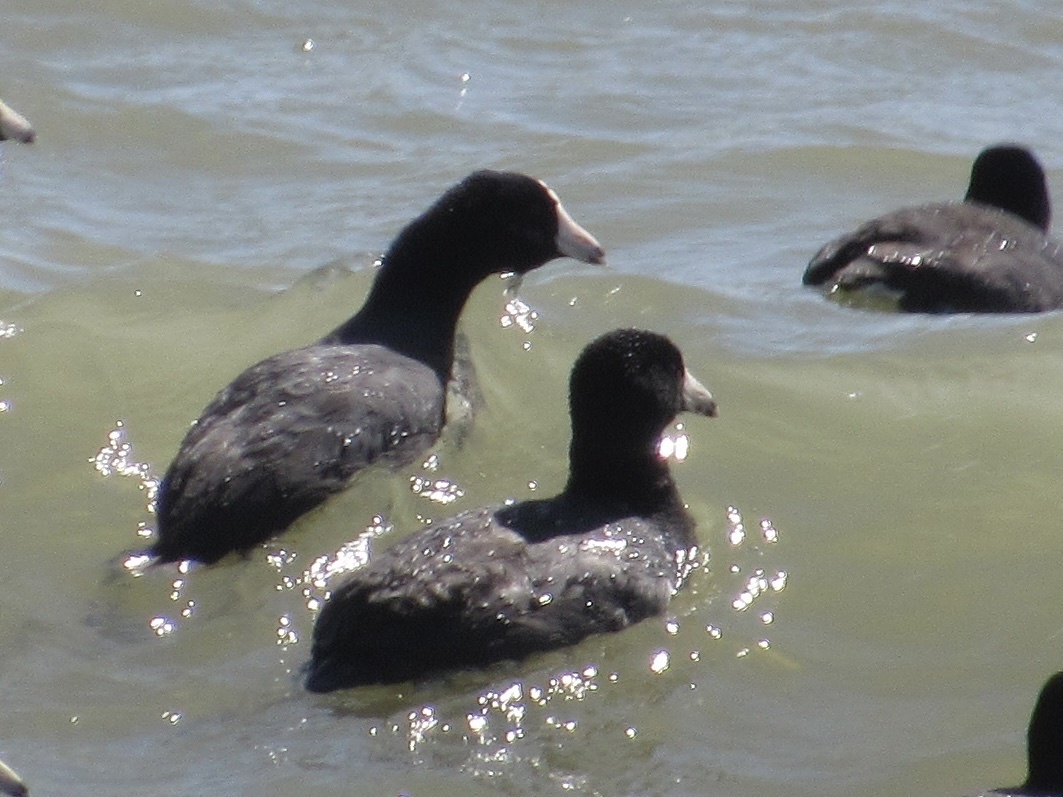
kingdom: Animalia
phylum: Chordata
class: Aves
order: Gruiformes
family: Rallidae
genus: Fulica
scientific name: Fulica americana
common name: American coot
